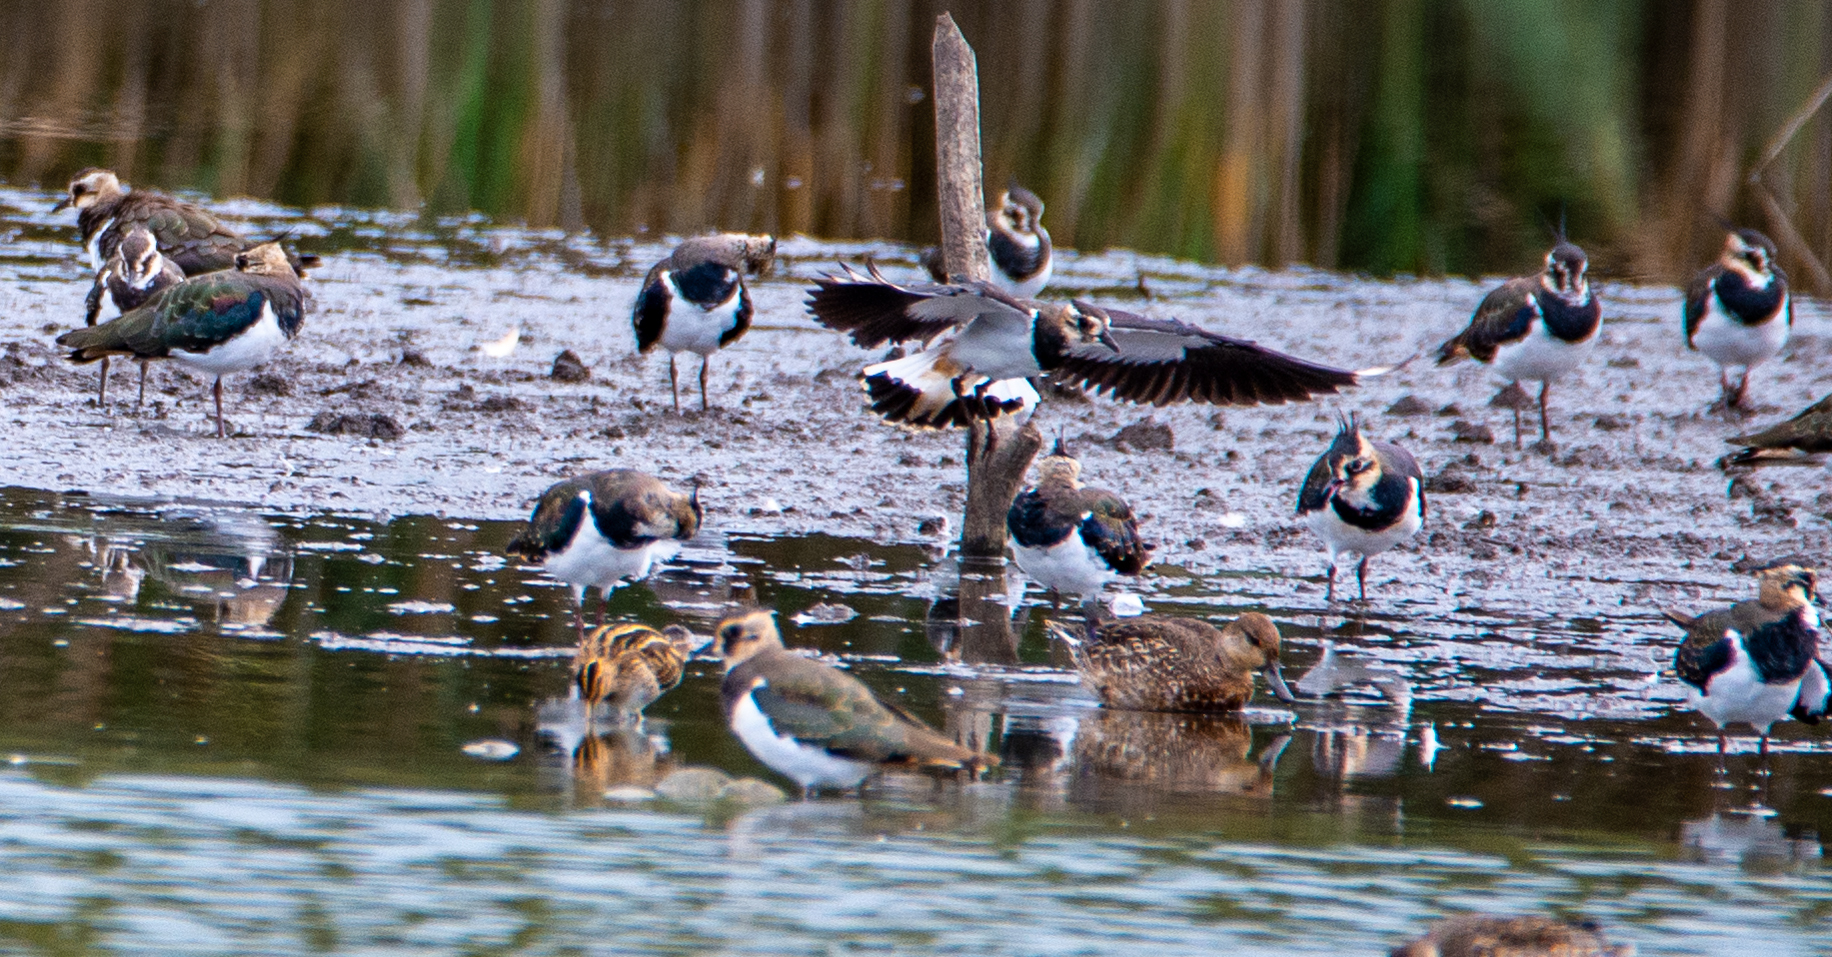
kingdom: Animalia
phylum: Chordata
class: Aves
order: Anseriformes
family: Anatidae
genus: Anas
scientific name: Anas crecca
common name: Eurasian teal
